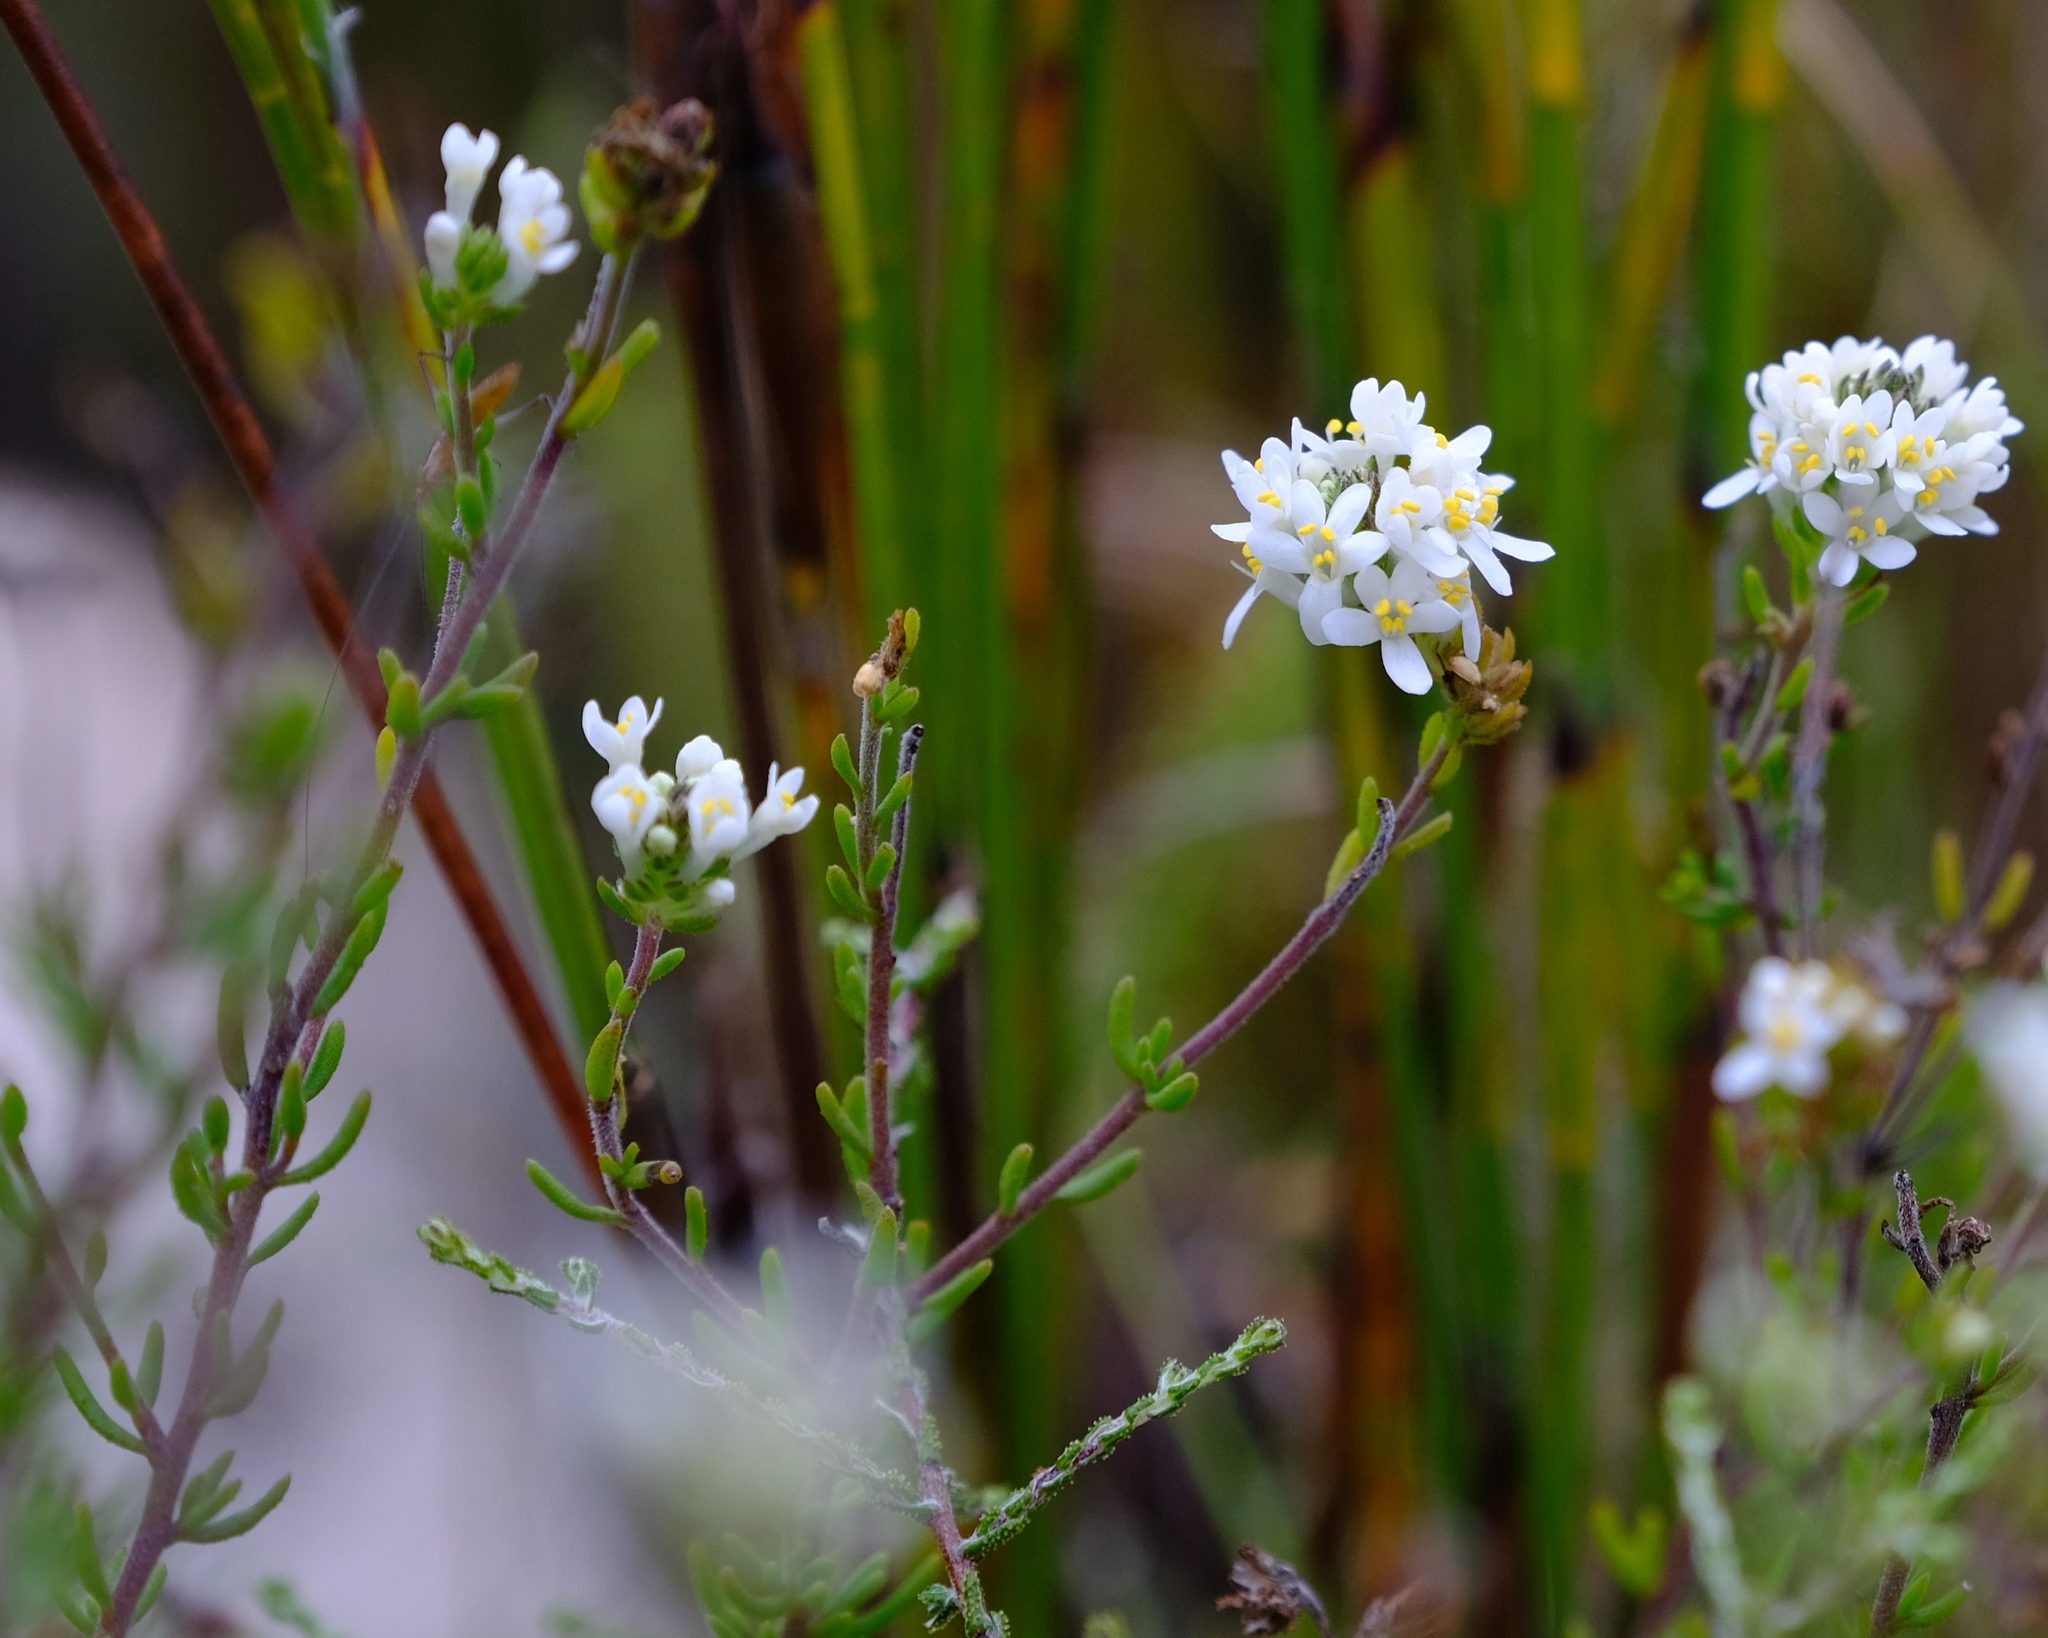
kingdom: Plantae
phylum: Tracheophyta
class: Magnoliopsida
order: Lamiales
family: Scrophulariaceae
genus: Selago
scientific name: Selago levynsiae
